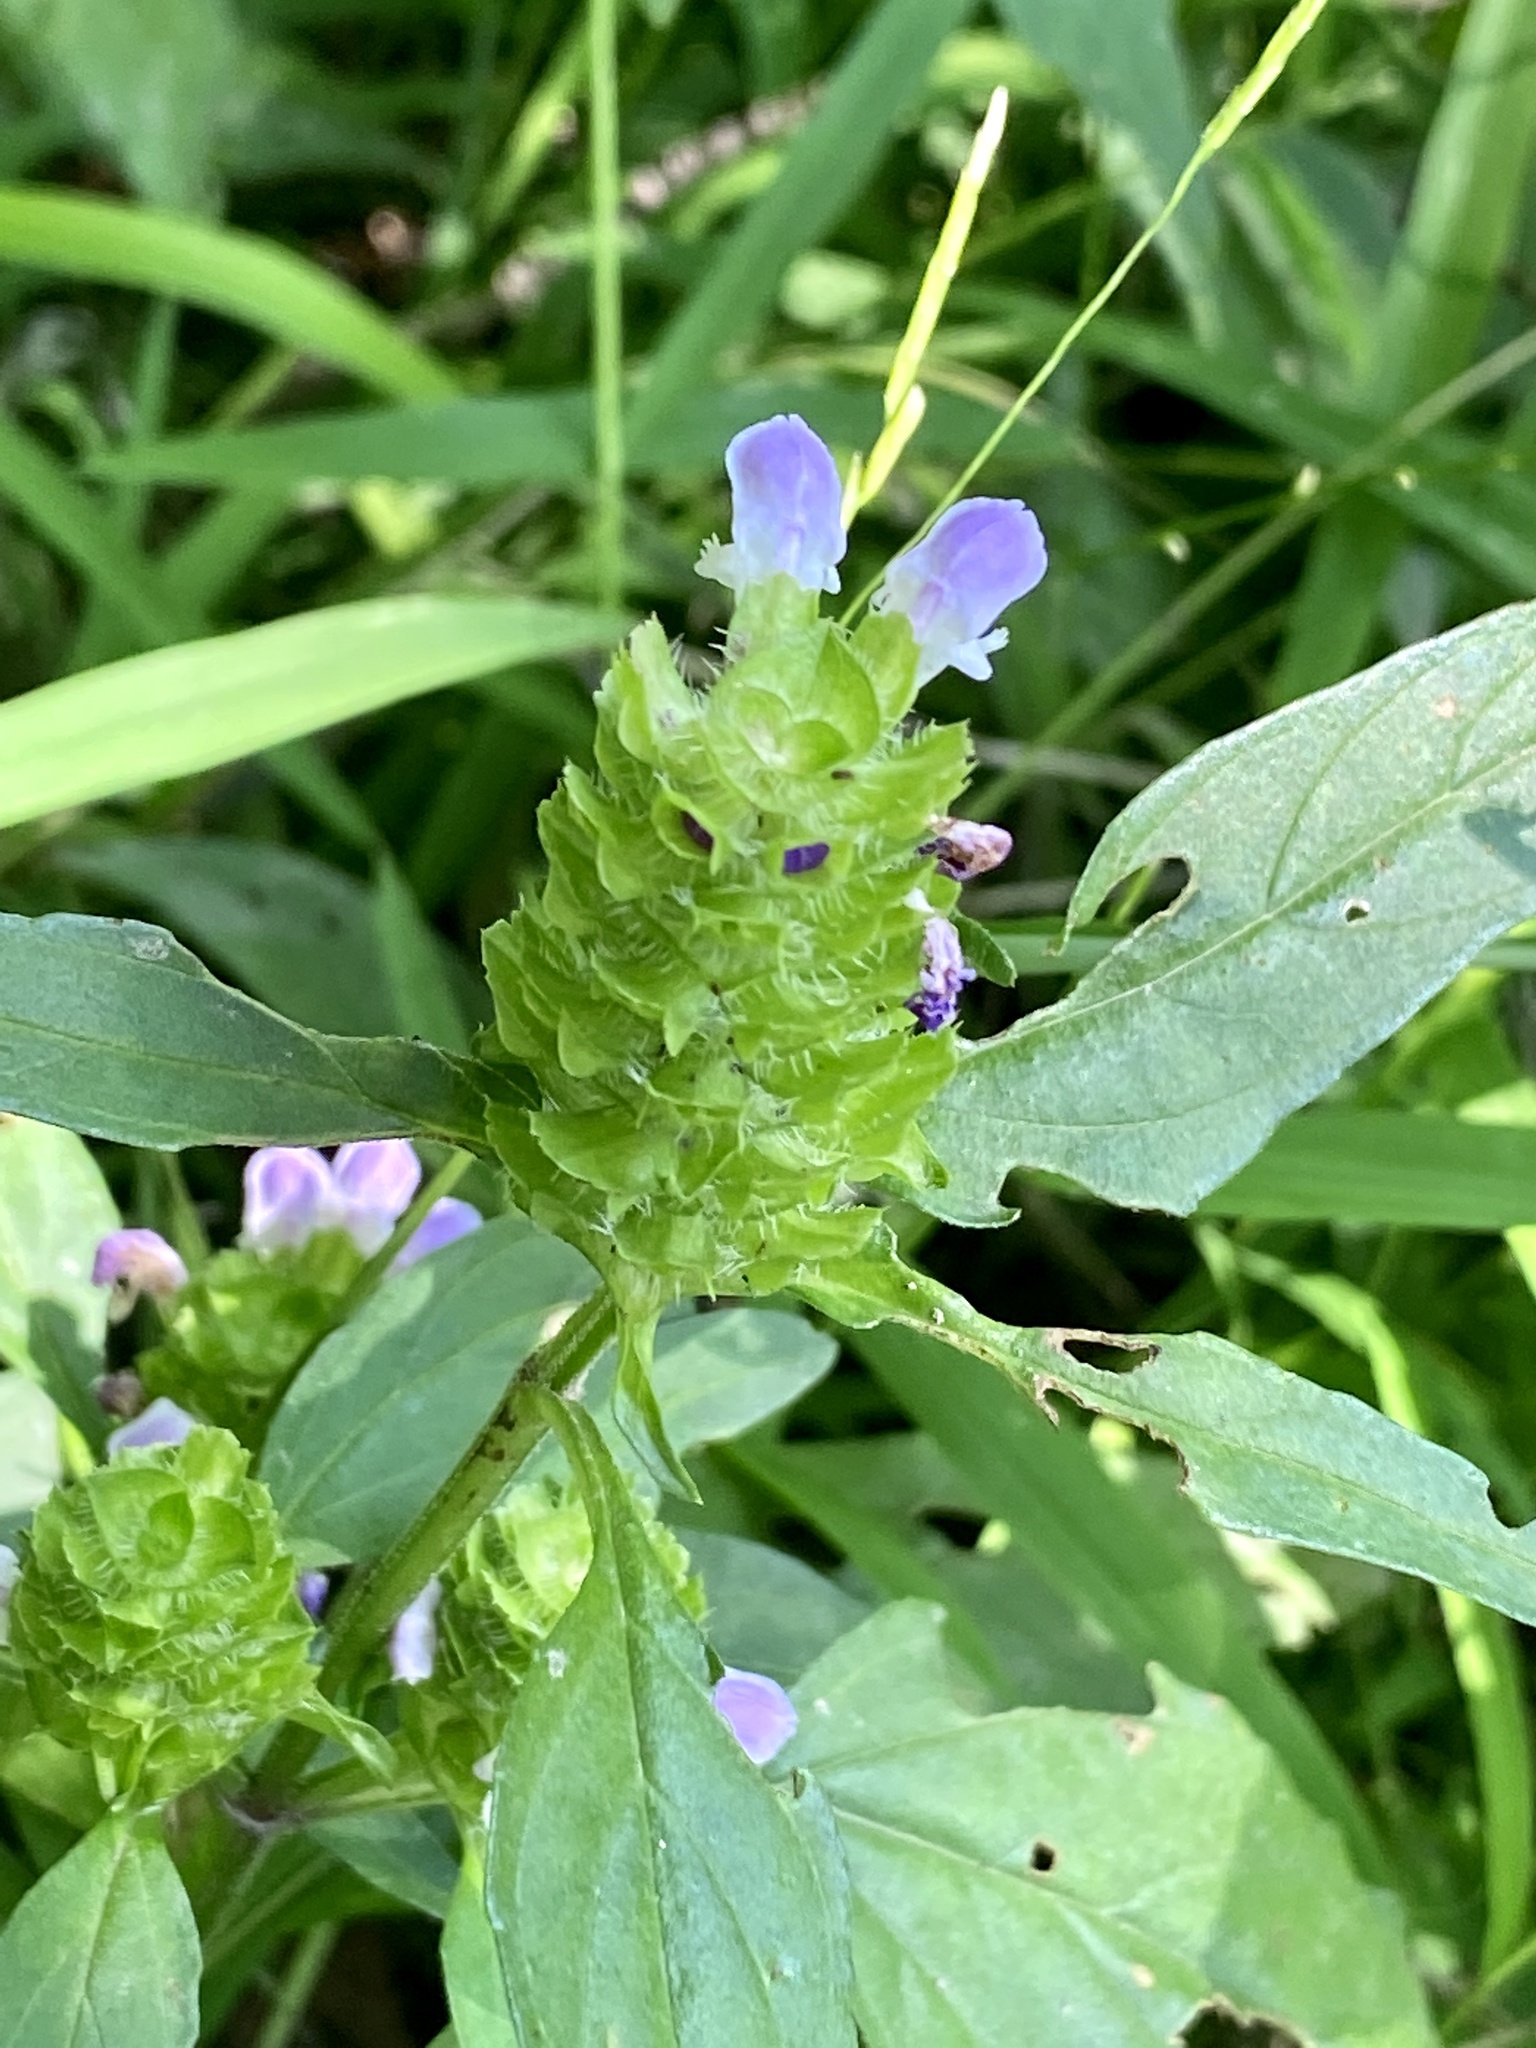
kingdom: Plantae
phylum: Tracheophyta
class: Magnoliopsida
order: Lamiales
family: Lamiaceae
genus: Prunella
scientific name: Prunella vulgaris
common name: Heal-all
